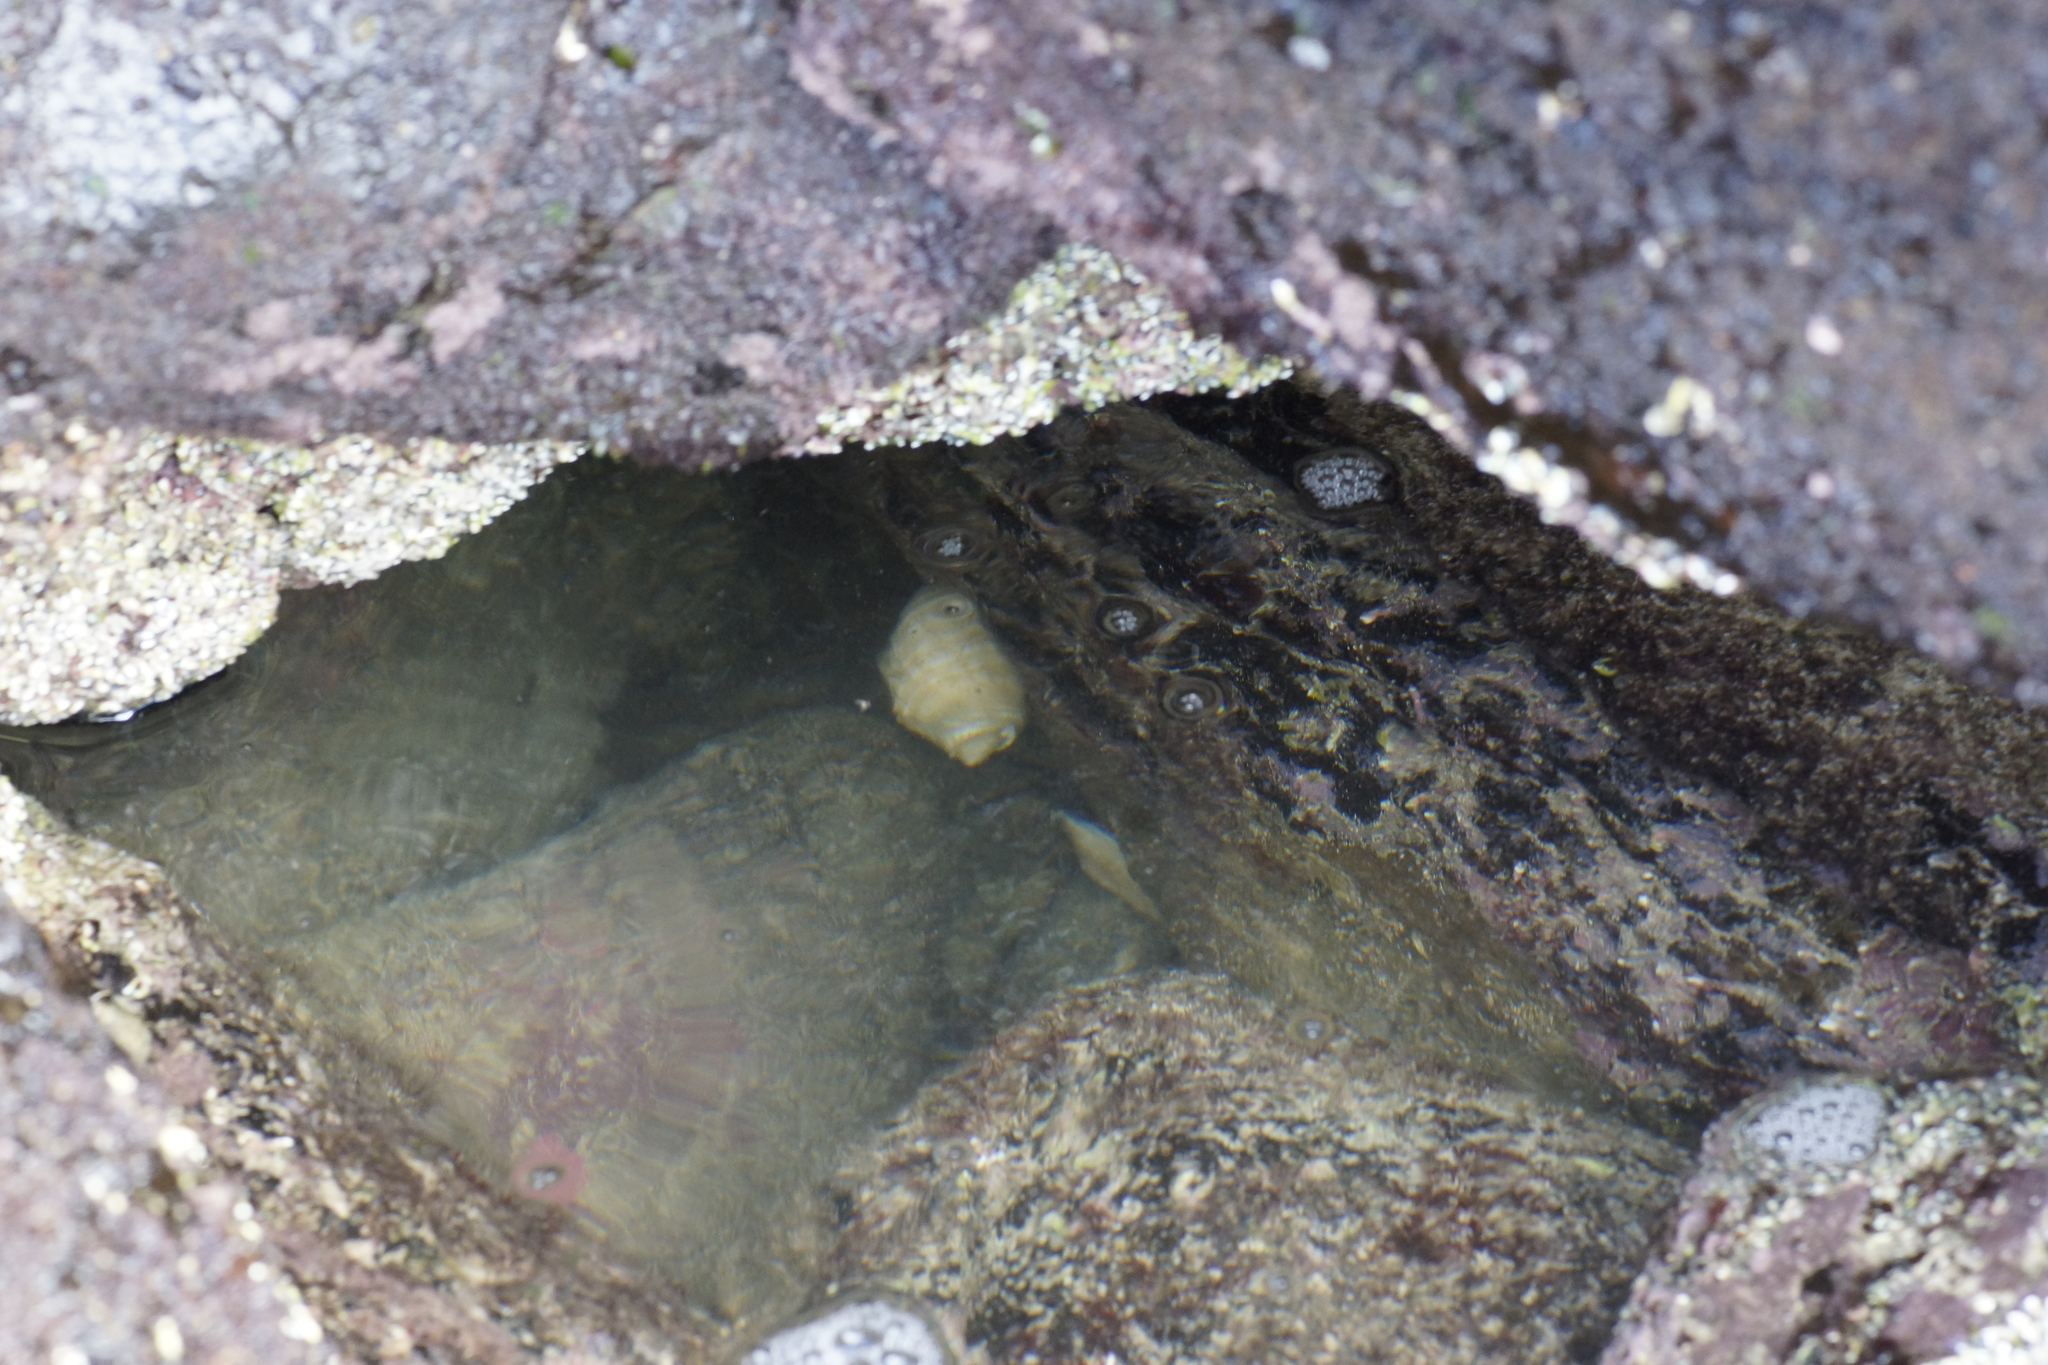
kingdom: Animalia
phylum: Mollusca
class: Gastropoda
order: Neogastropoda
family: Muricidae
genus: Dicathais
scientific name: Dicathais orbita
